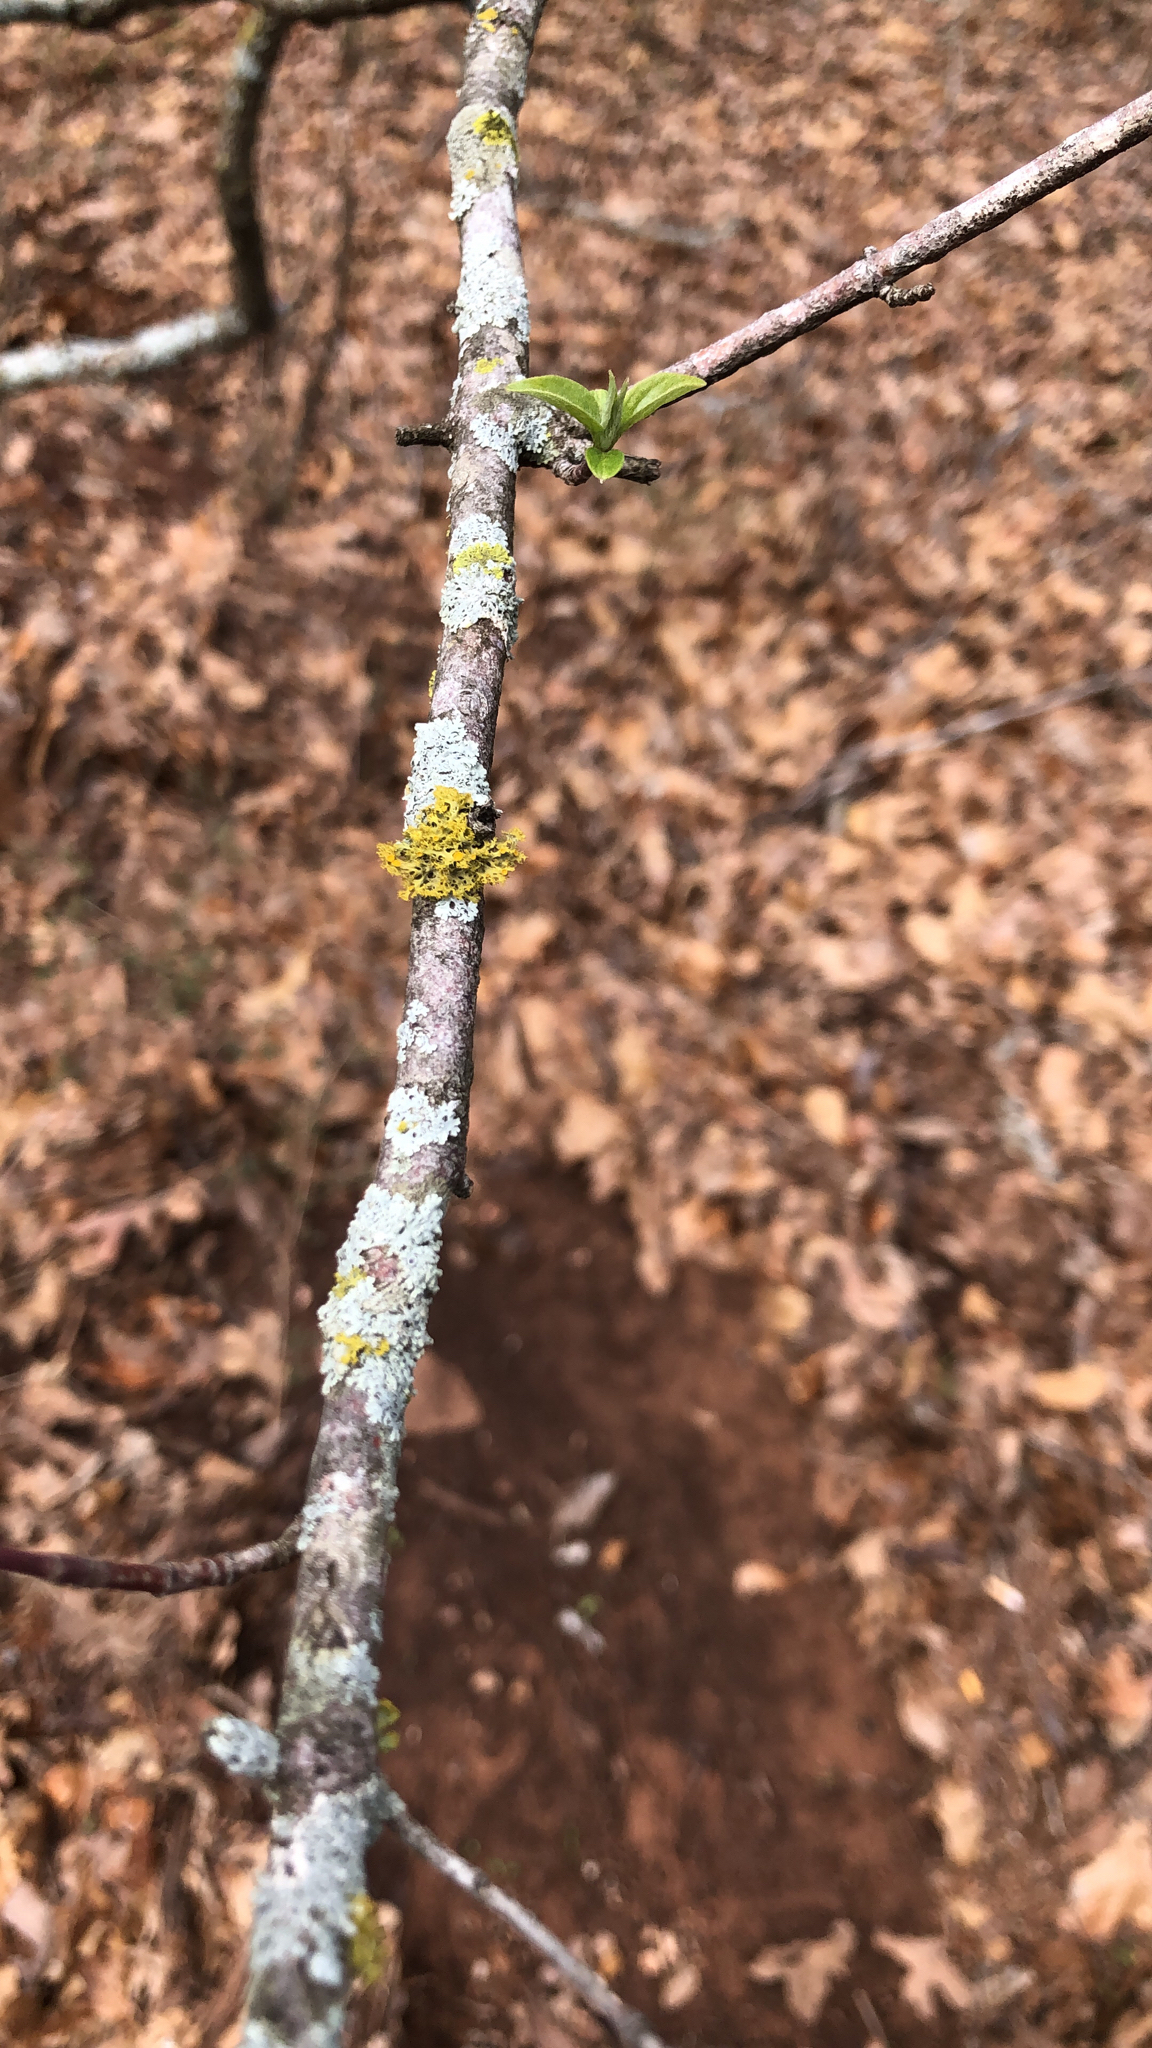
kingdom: Fungi
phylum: Ascomycota
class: Lecanoromycetes
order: Teloschistales
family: Teloschistaceae
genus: Niorma
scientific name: Niorma chrysophthalma
